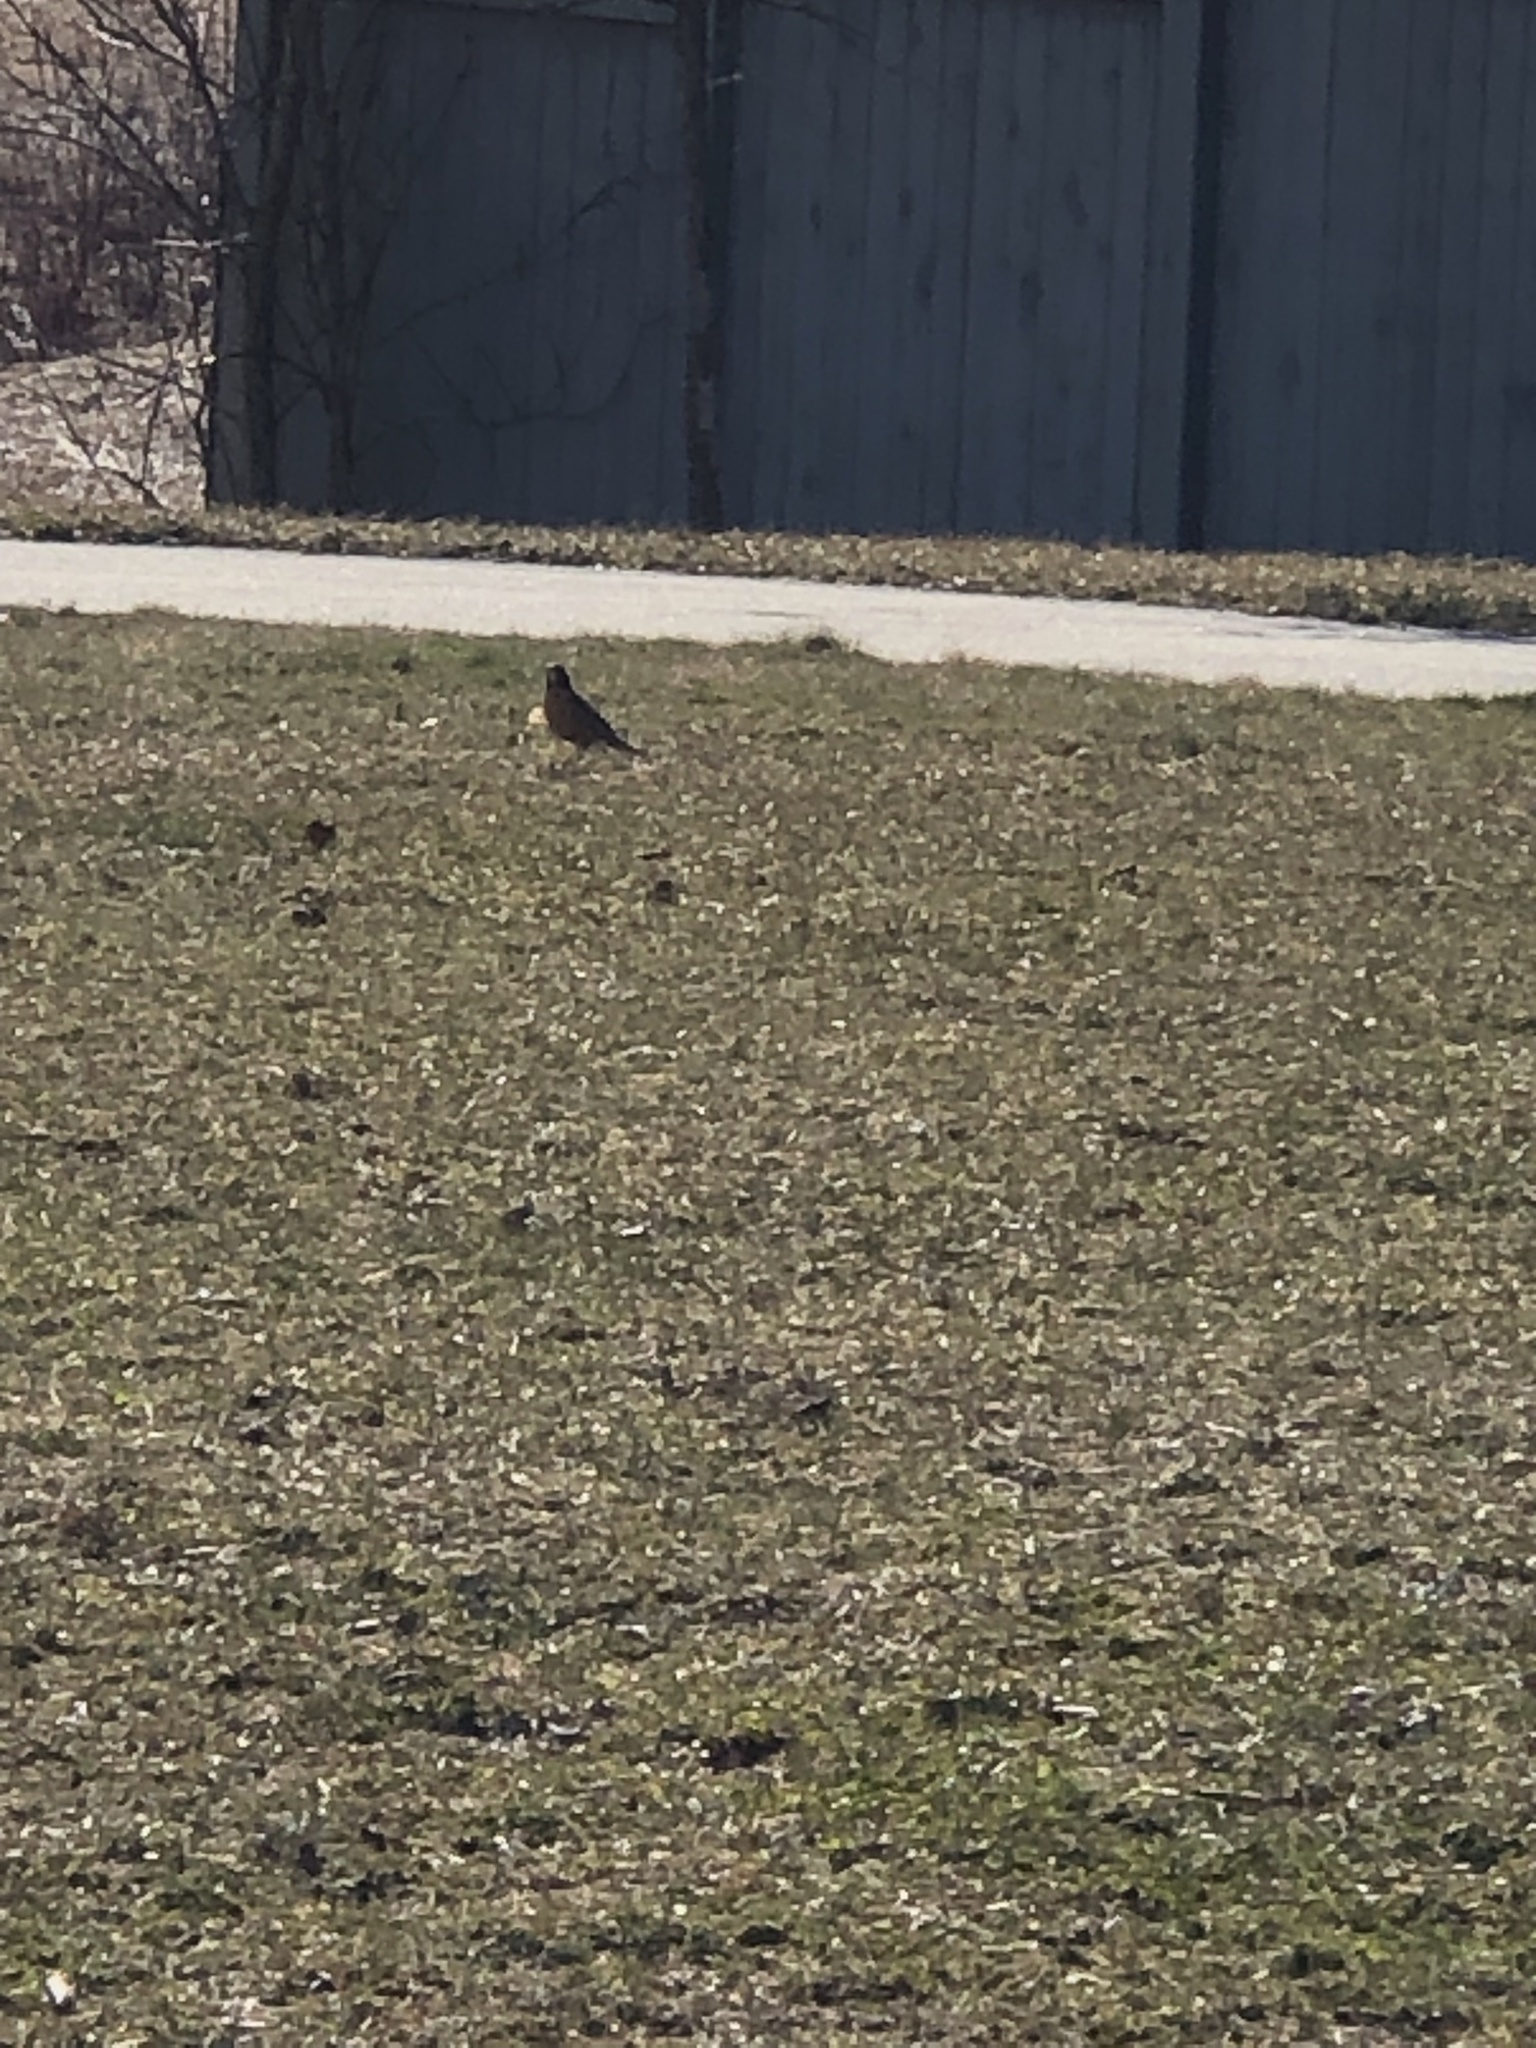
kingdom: Animalia
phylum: Chordata
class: Aves
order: Passeriformes
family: Turdidae
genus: Turdus
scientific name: Turdus migratorius
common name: American robin
